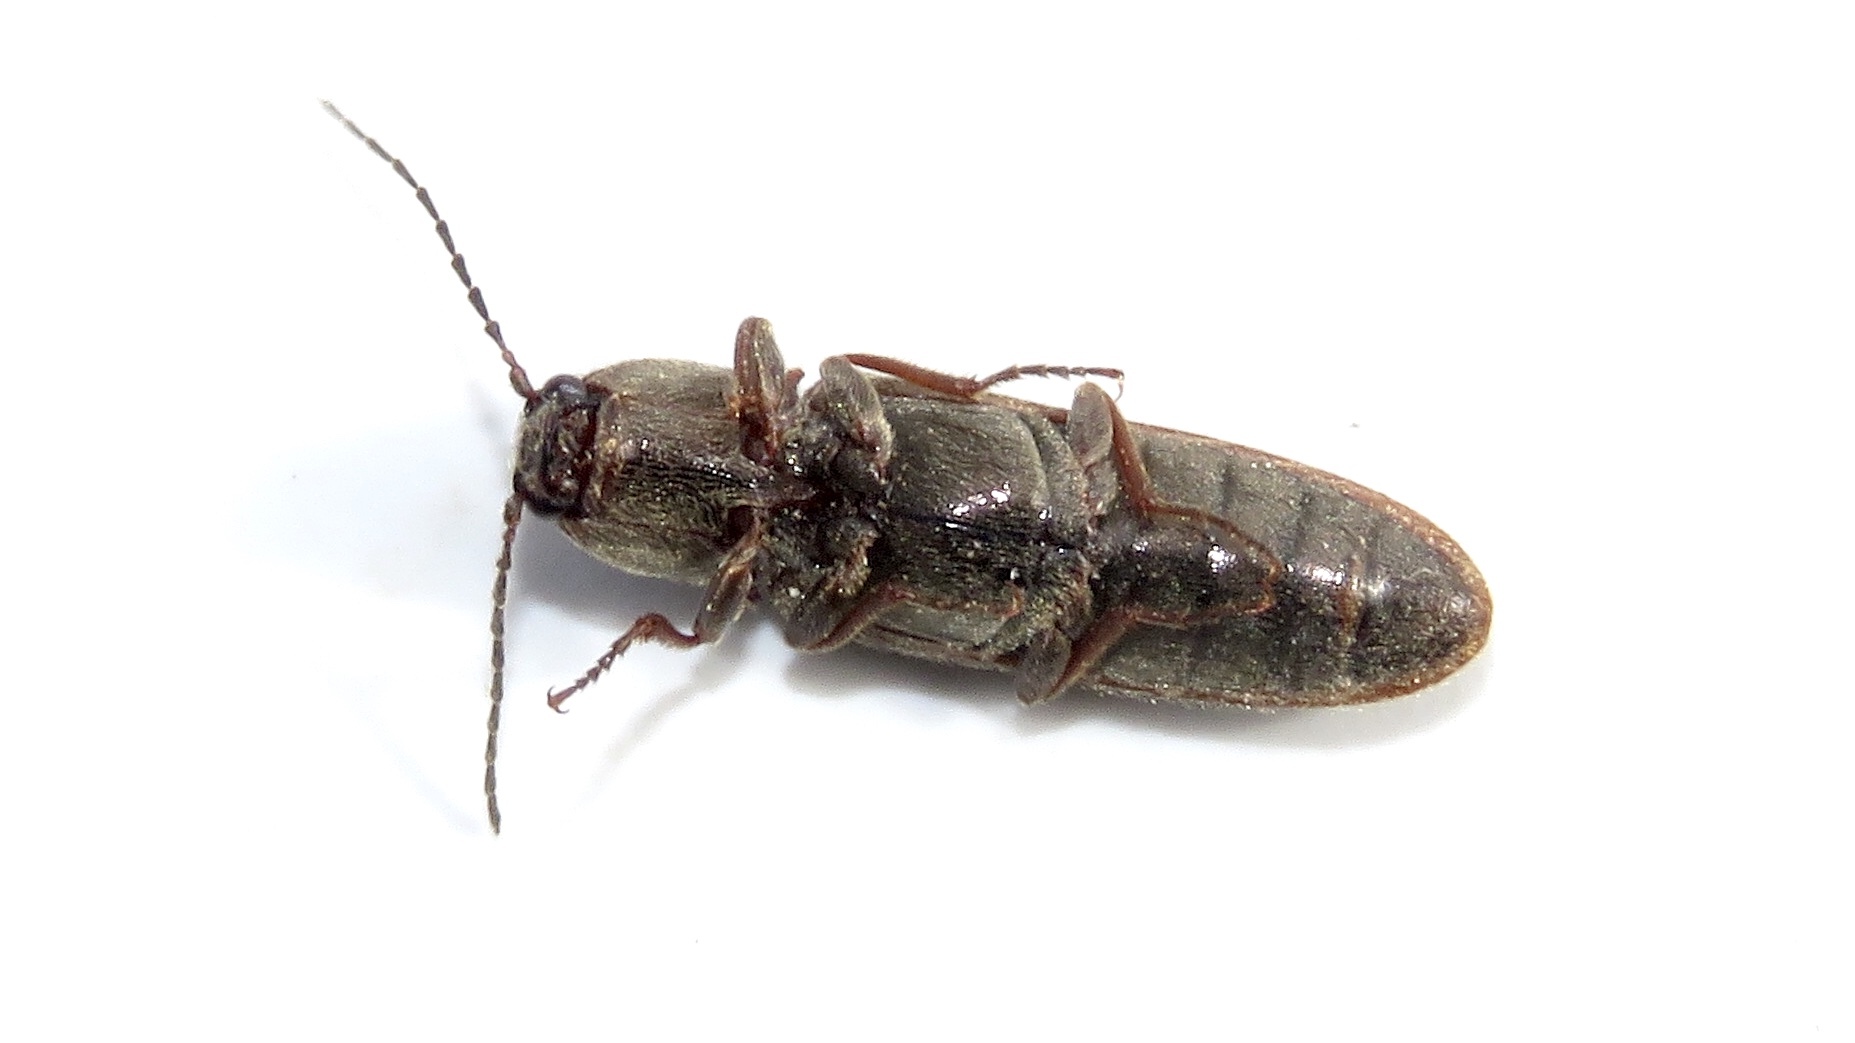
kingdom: Animalia
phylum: Arthropoda
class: Insecta
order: Coleoptera
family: Elateridae
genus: Sylvanelater
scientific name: Sylvanelater cylindriformis
